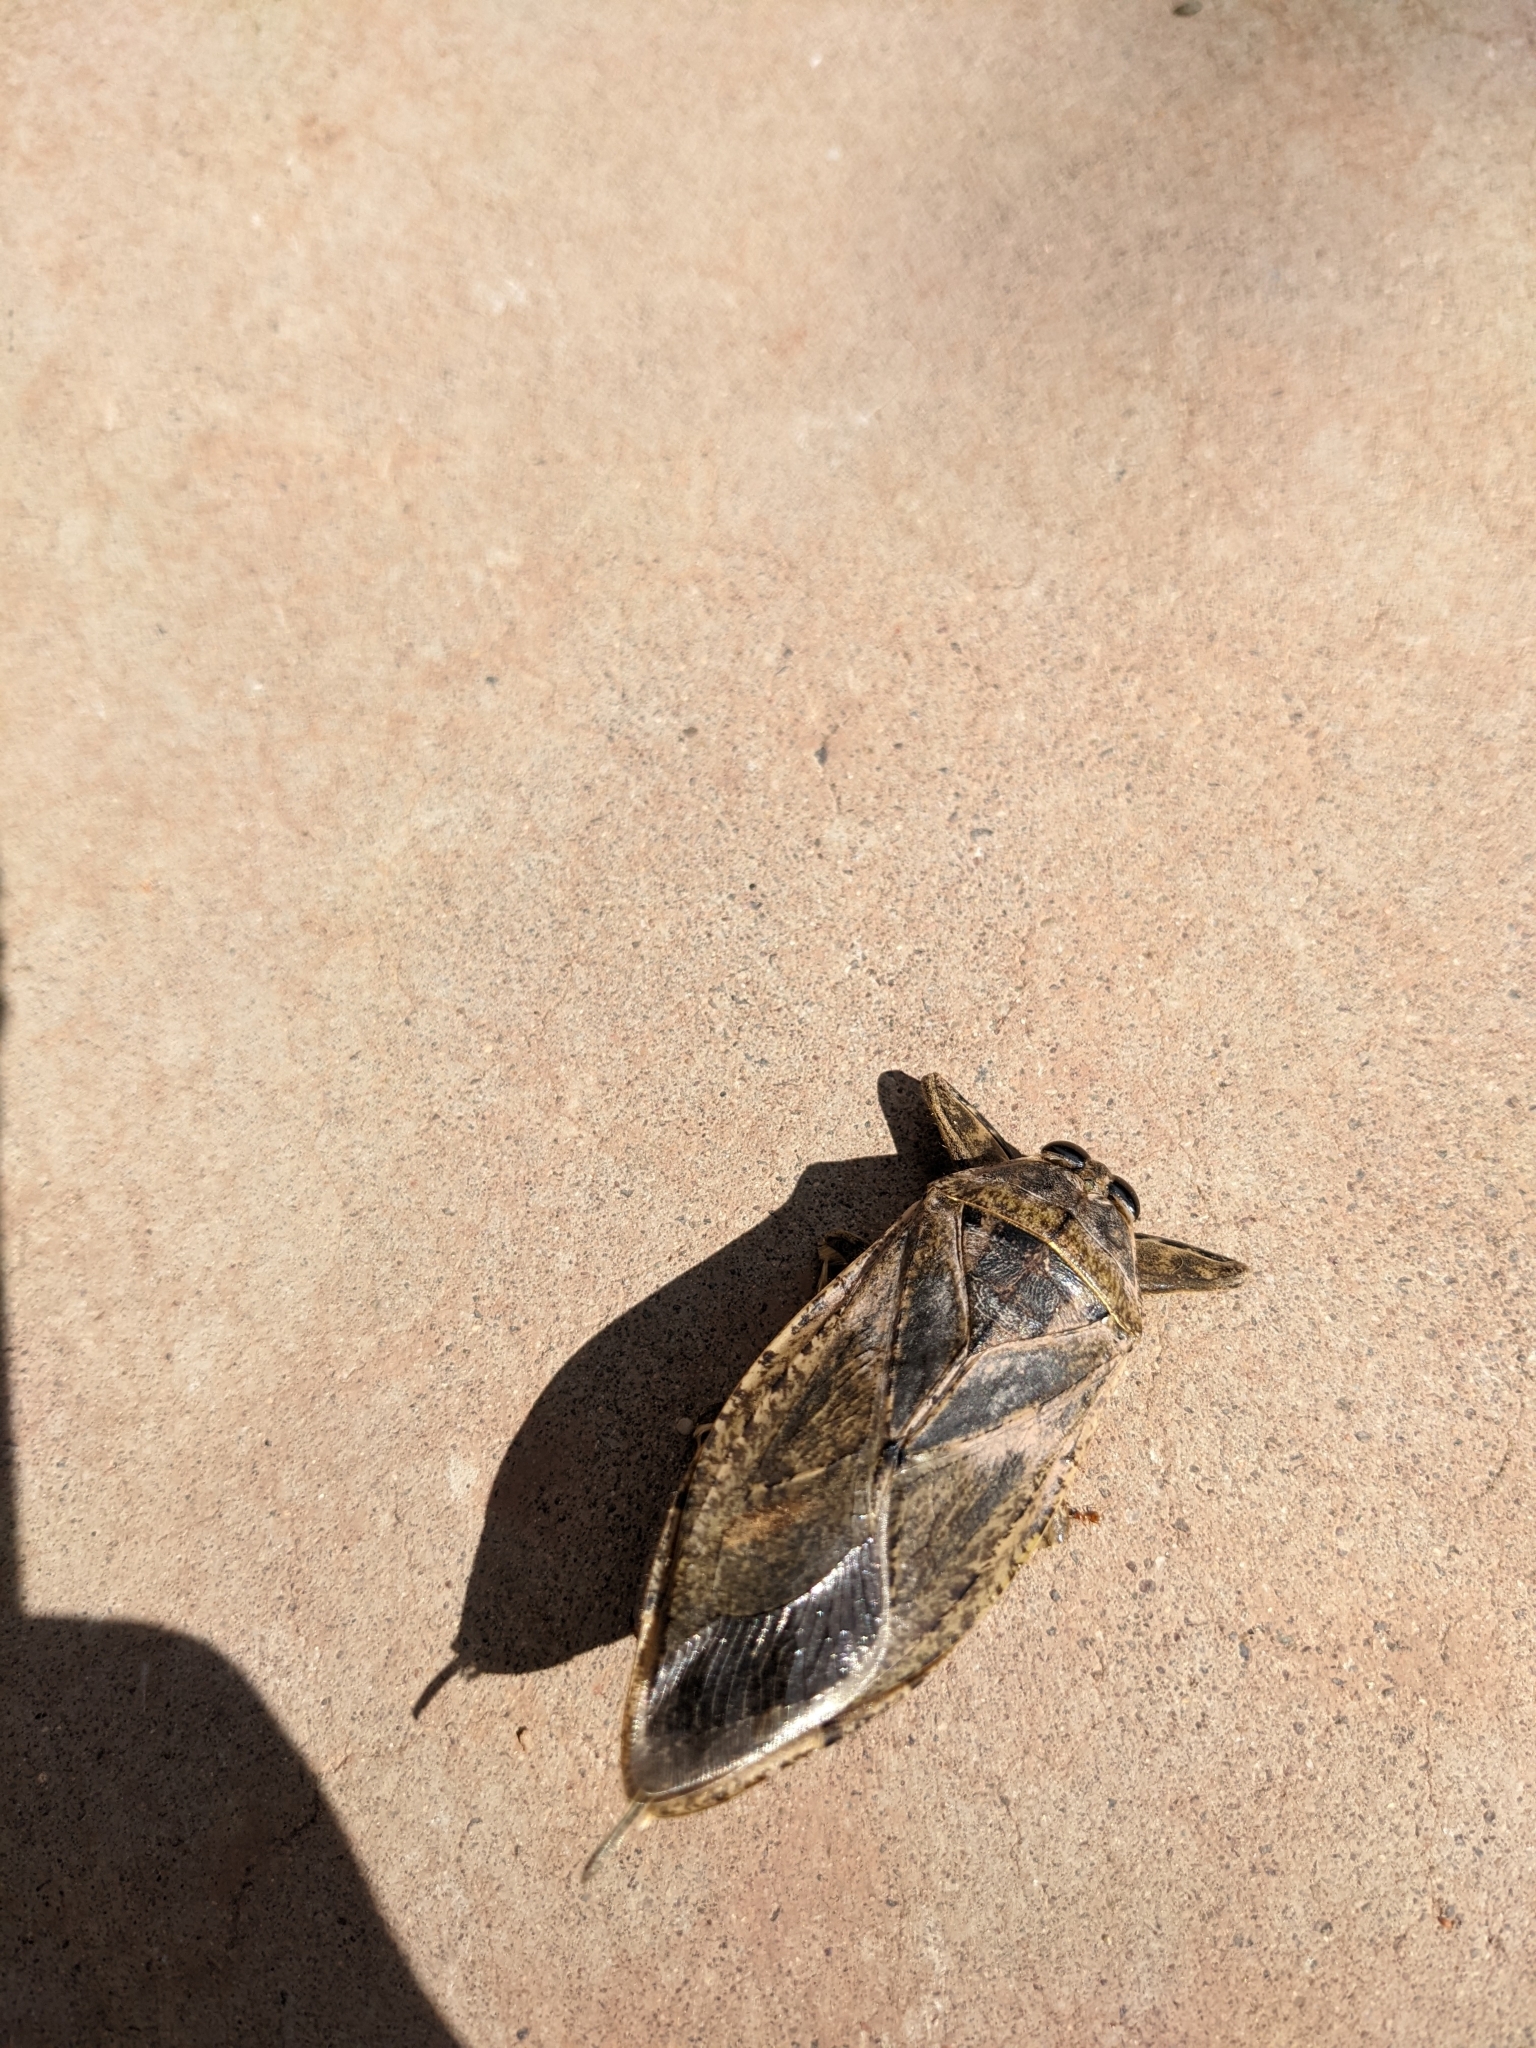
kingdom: Animalia
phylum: Arthropoda
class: Insecta
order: Hemiptera
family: Belostomatidae
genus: Lethocerus
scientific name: Lethocerus medius
